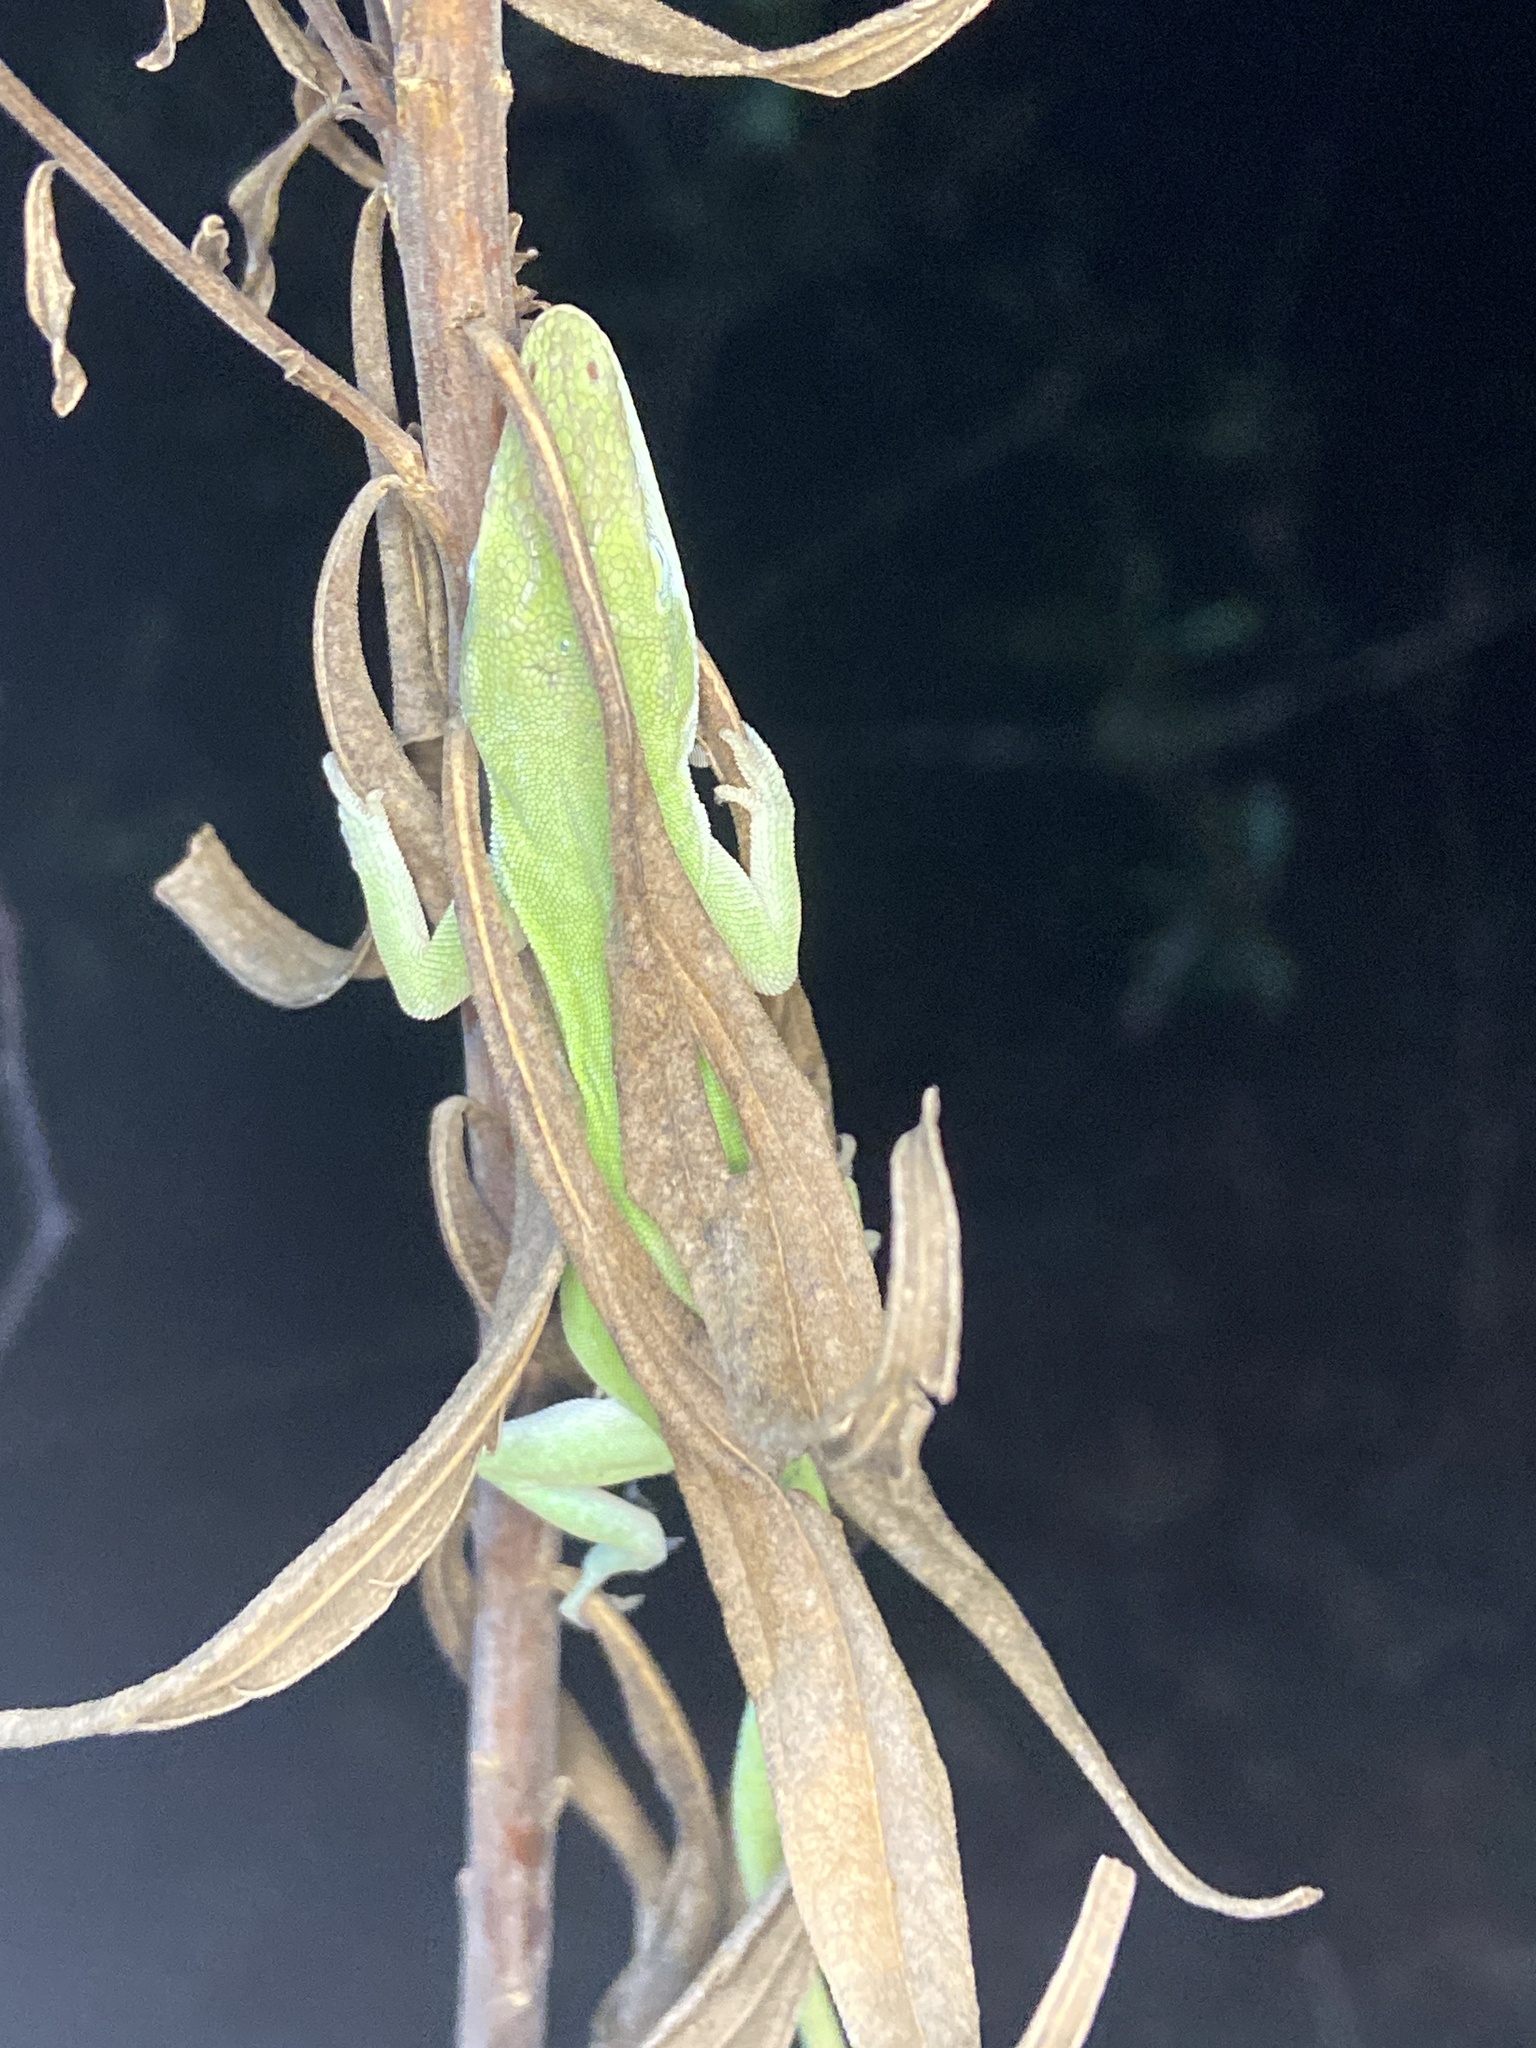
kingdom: Animalia
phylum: Chordata
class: Squamata
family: Dactyloidae
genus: Anolis
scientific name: Anolis carolinensis
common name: Green anole
